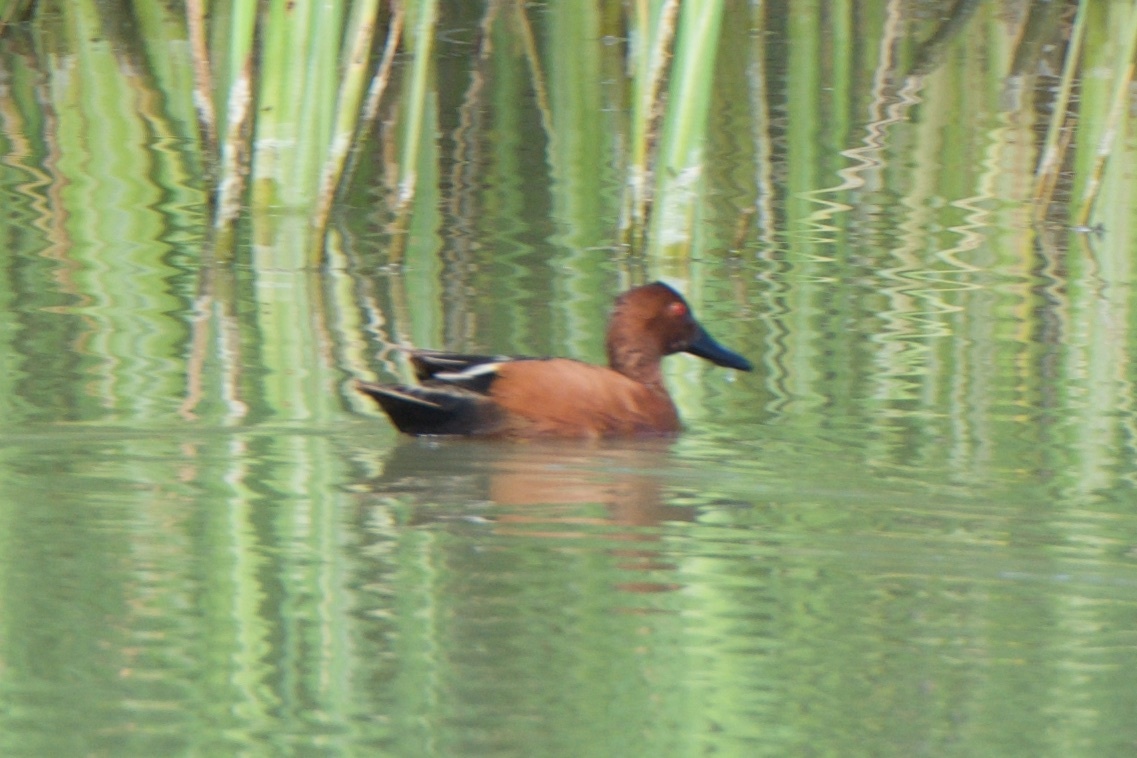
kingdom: Animalia
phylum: Chordata
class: Aves
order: Anseriformes
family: Anatidae
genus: Spatula
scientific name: Spatula cyanoptera
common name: Cinnamon teal
